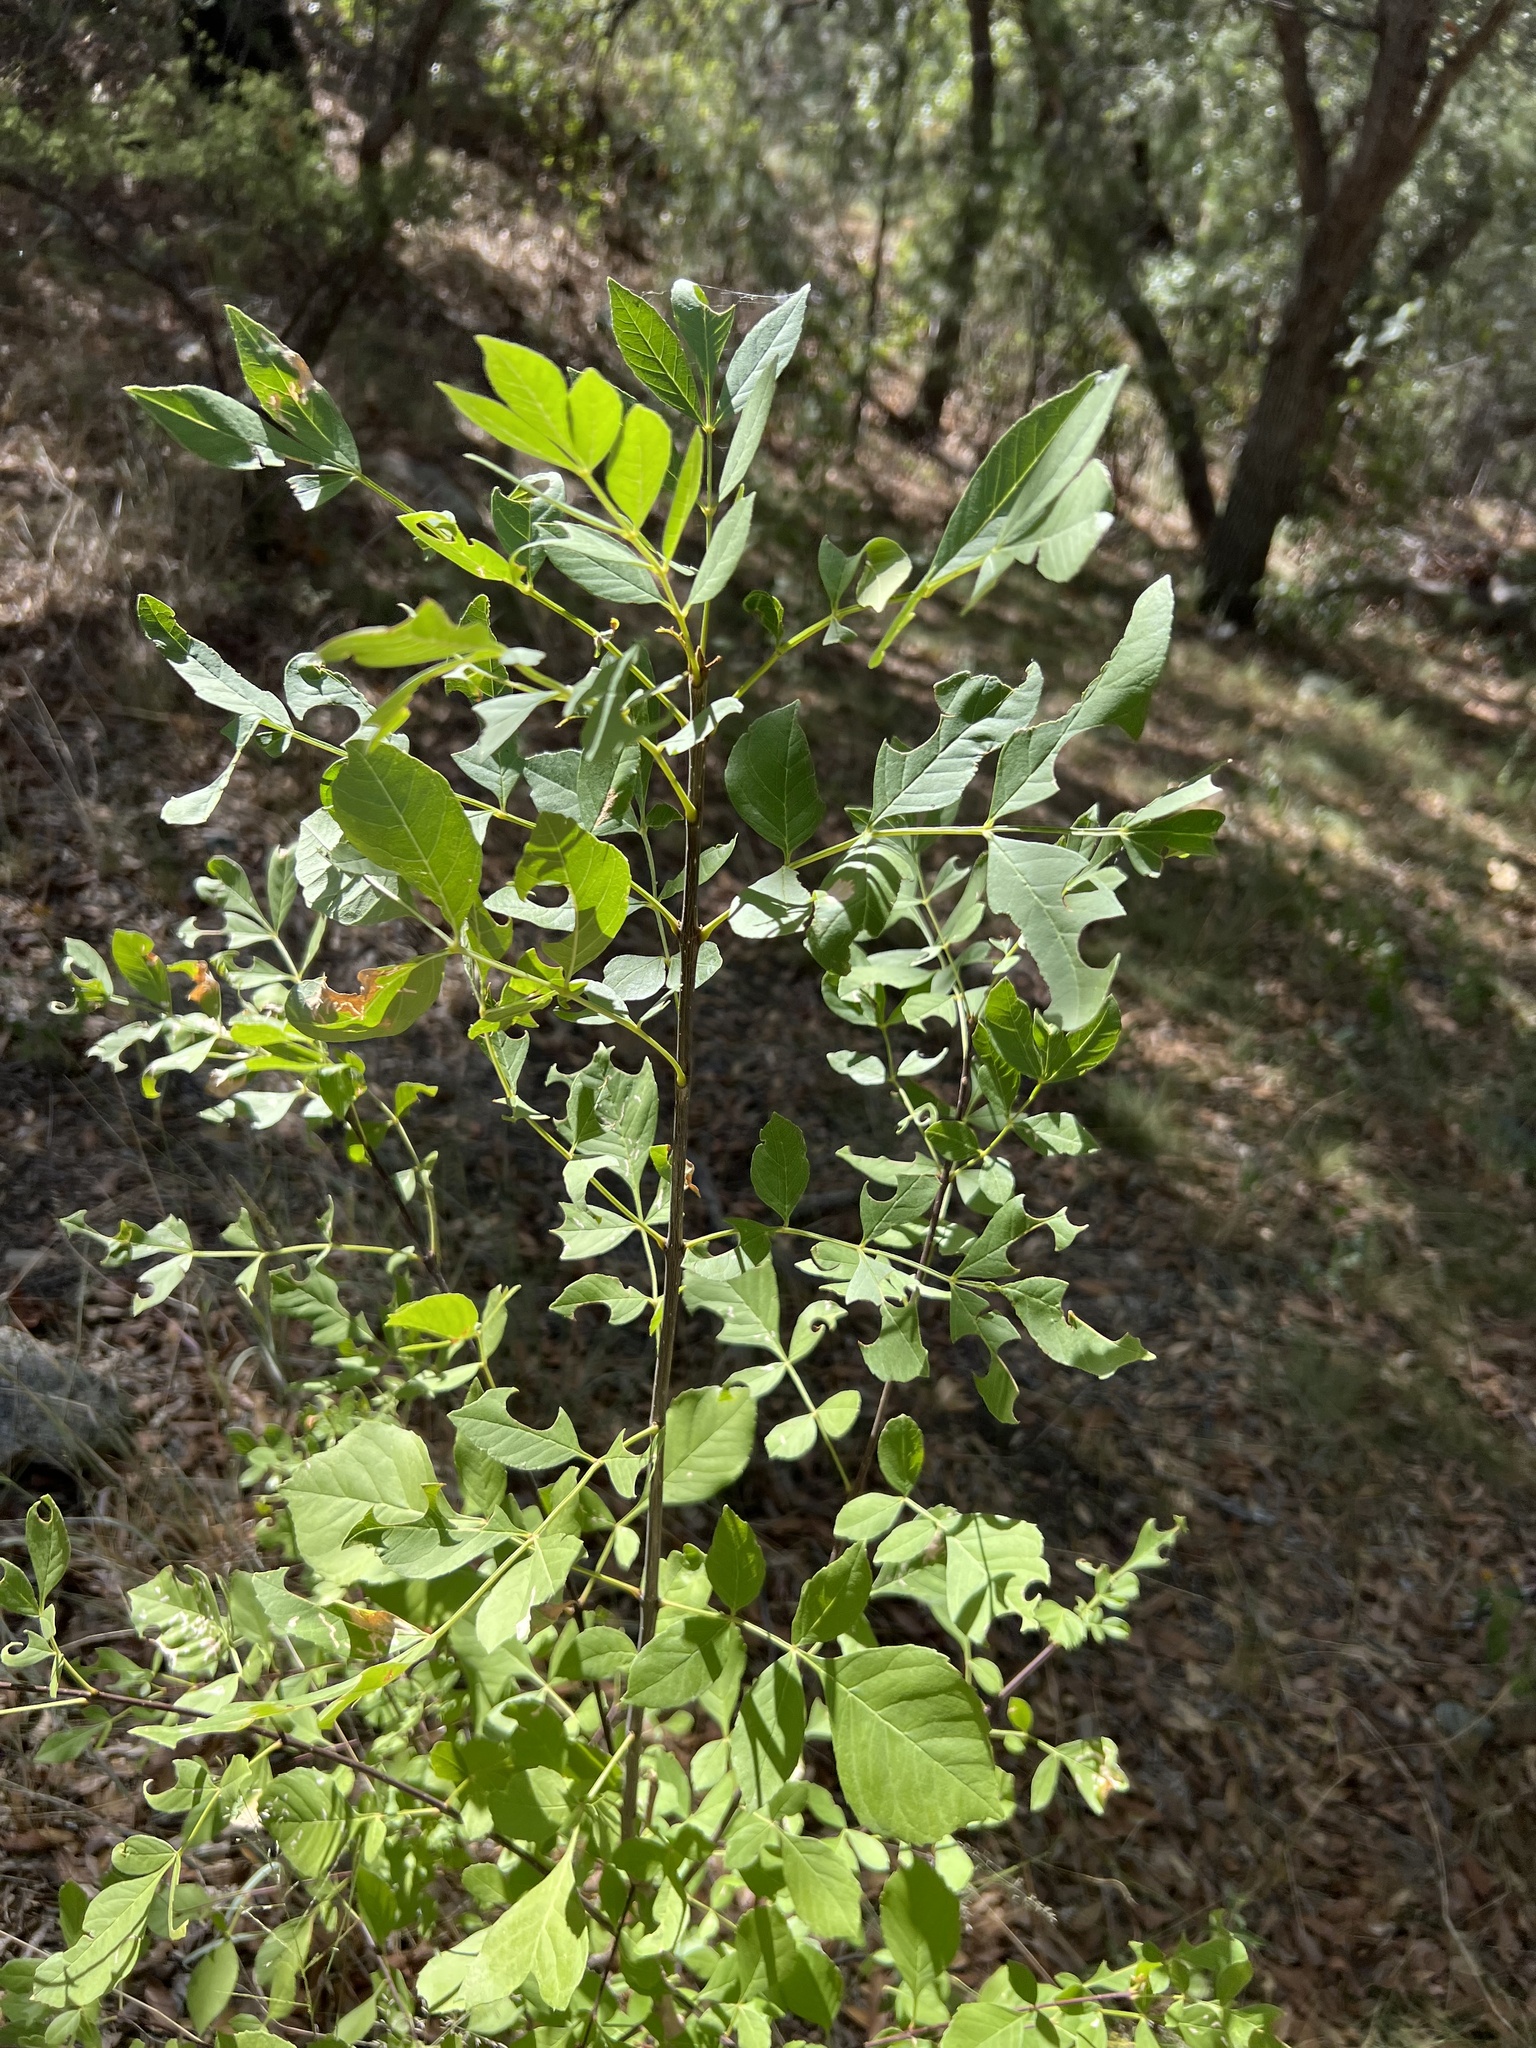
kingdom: Plantae
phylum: Tracheophyta
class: Magnoliopsida
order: Lamiales
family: Oleaceae
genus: Fraxinus
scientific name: Fraxinus velutina
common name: Arizon ash
